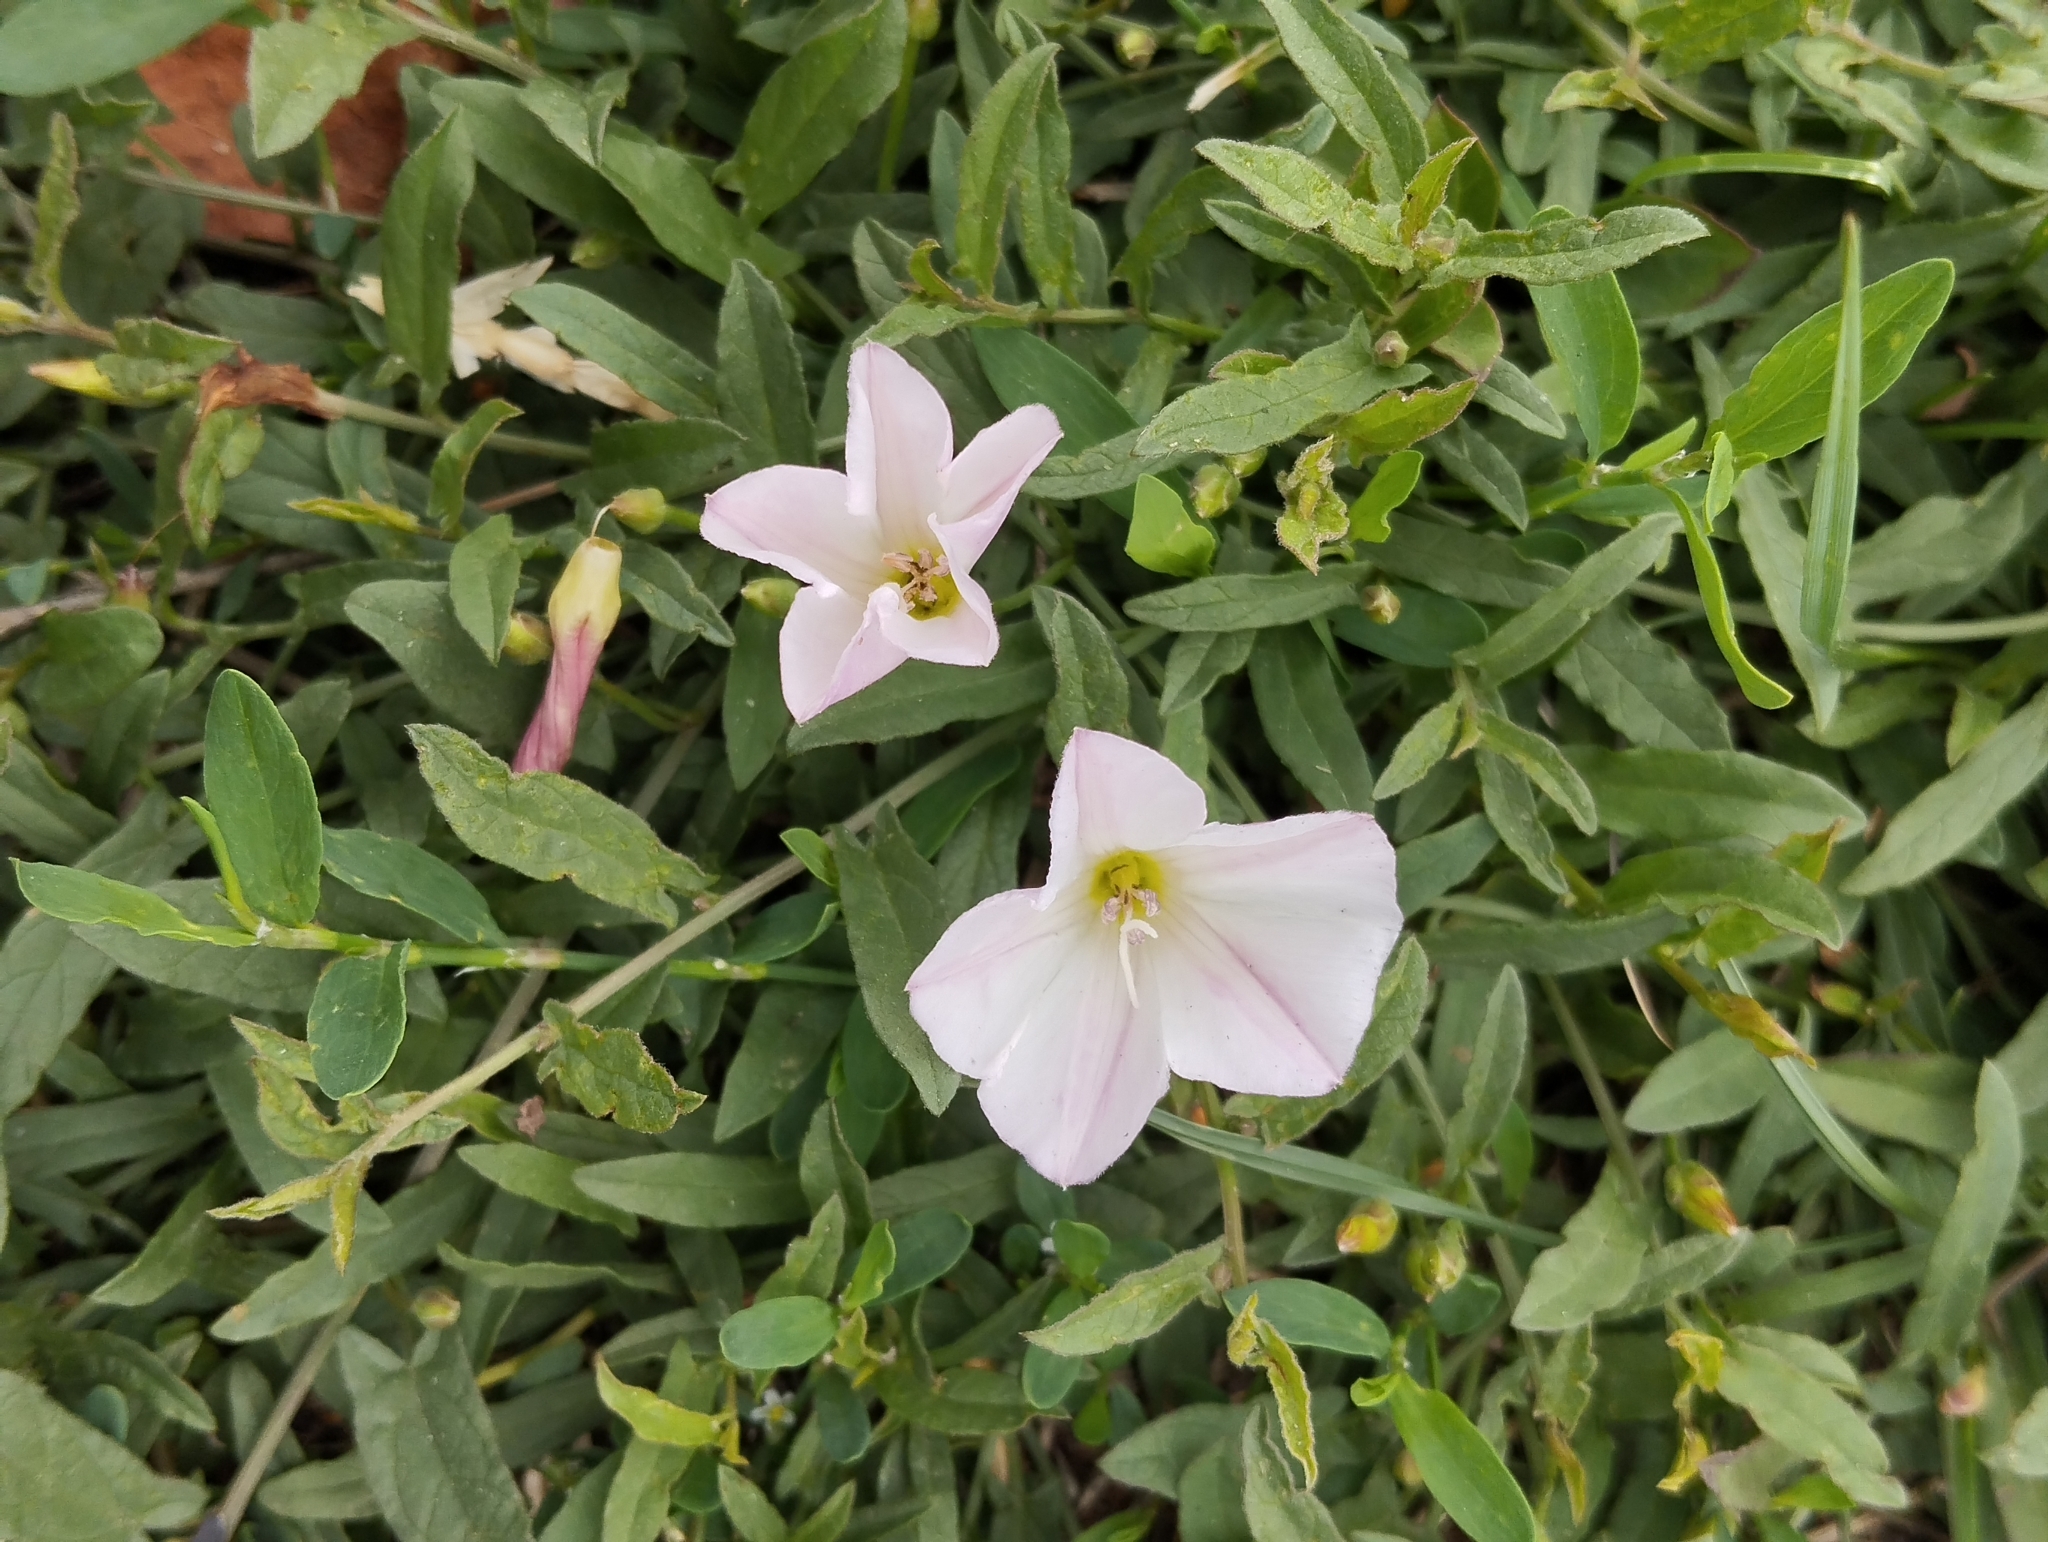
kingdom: Plantae
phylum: Tracheophyta
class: Magnoliopsida
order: Solanales
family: Convolvulaceae
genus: Convolvulus
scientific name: Convolvulus arvensis
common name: Field bindweed
